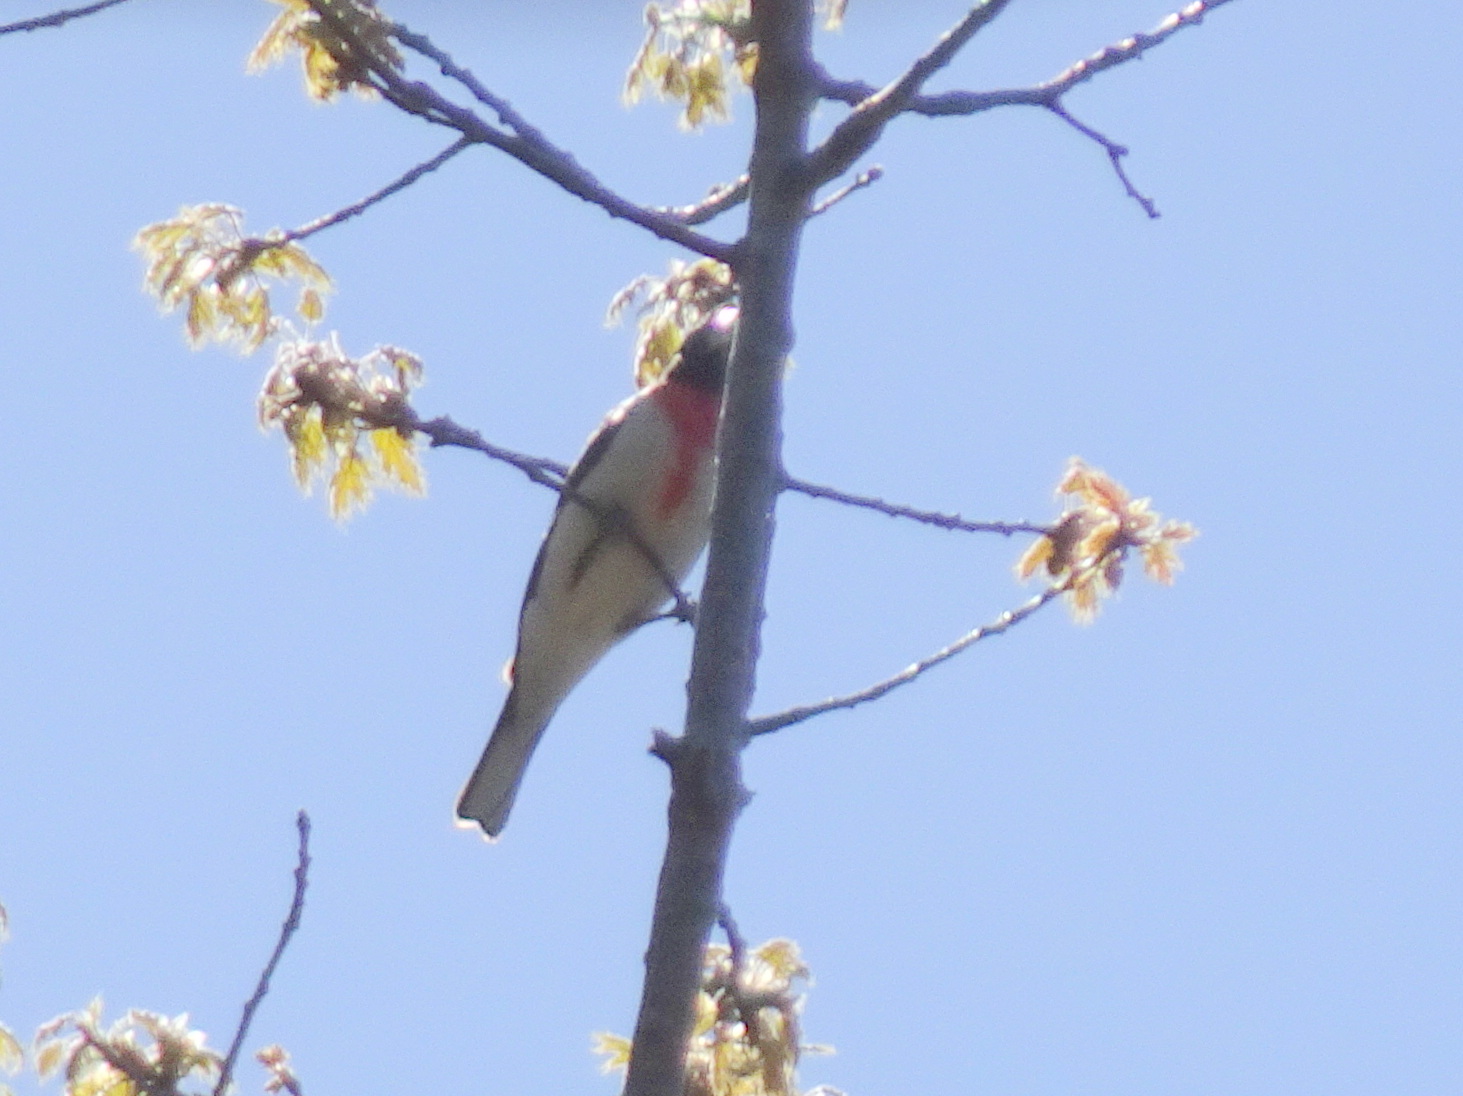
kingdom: Animalia
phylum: Chordata
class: Aves
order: Passeriformes
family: Cardinalidae
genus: Pheucticus
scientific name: Pheucticus ludovicianus
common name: Rose-breasted grosbeak
